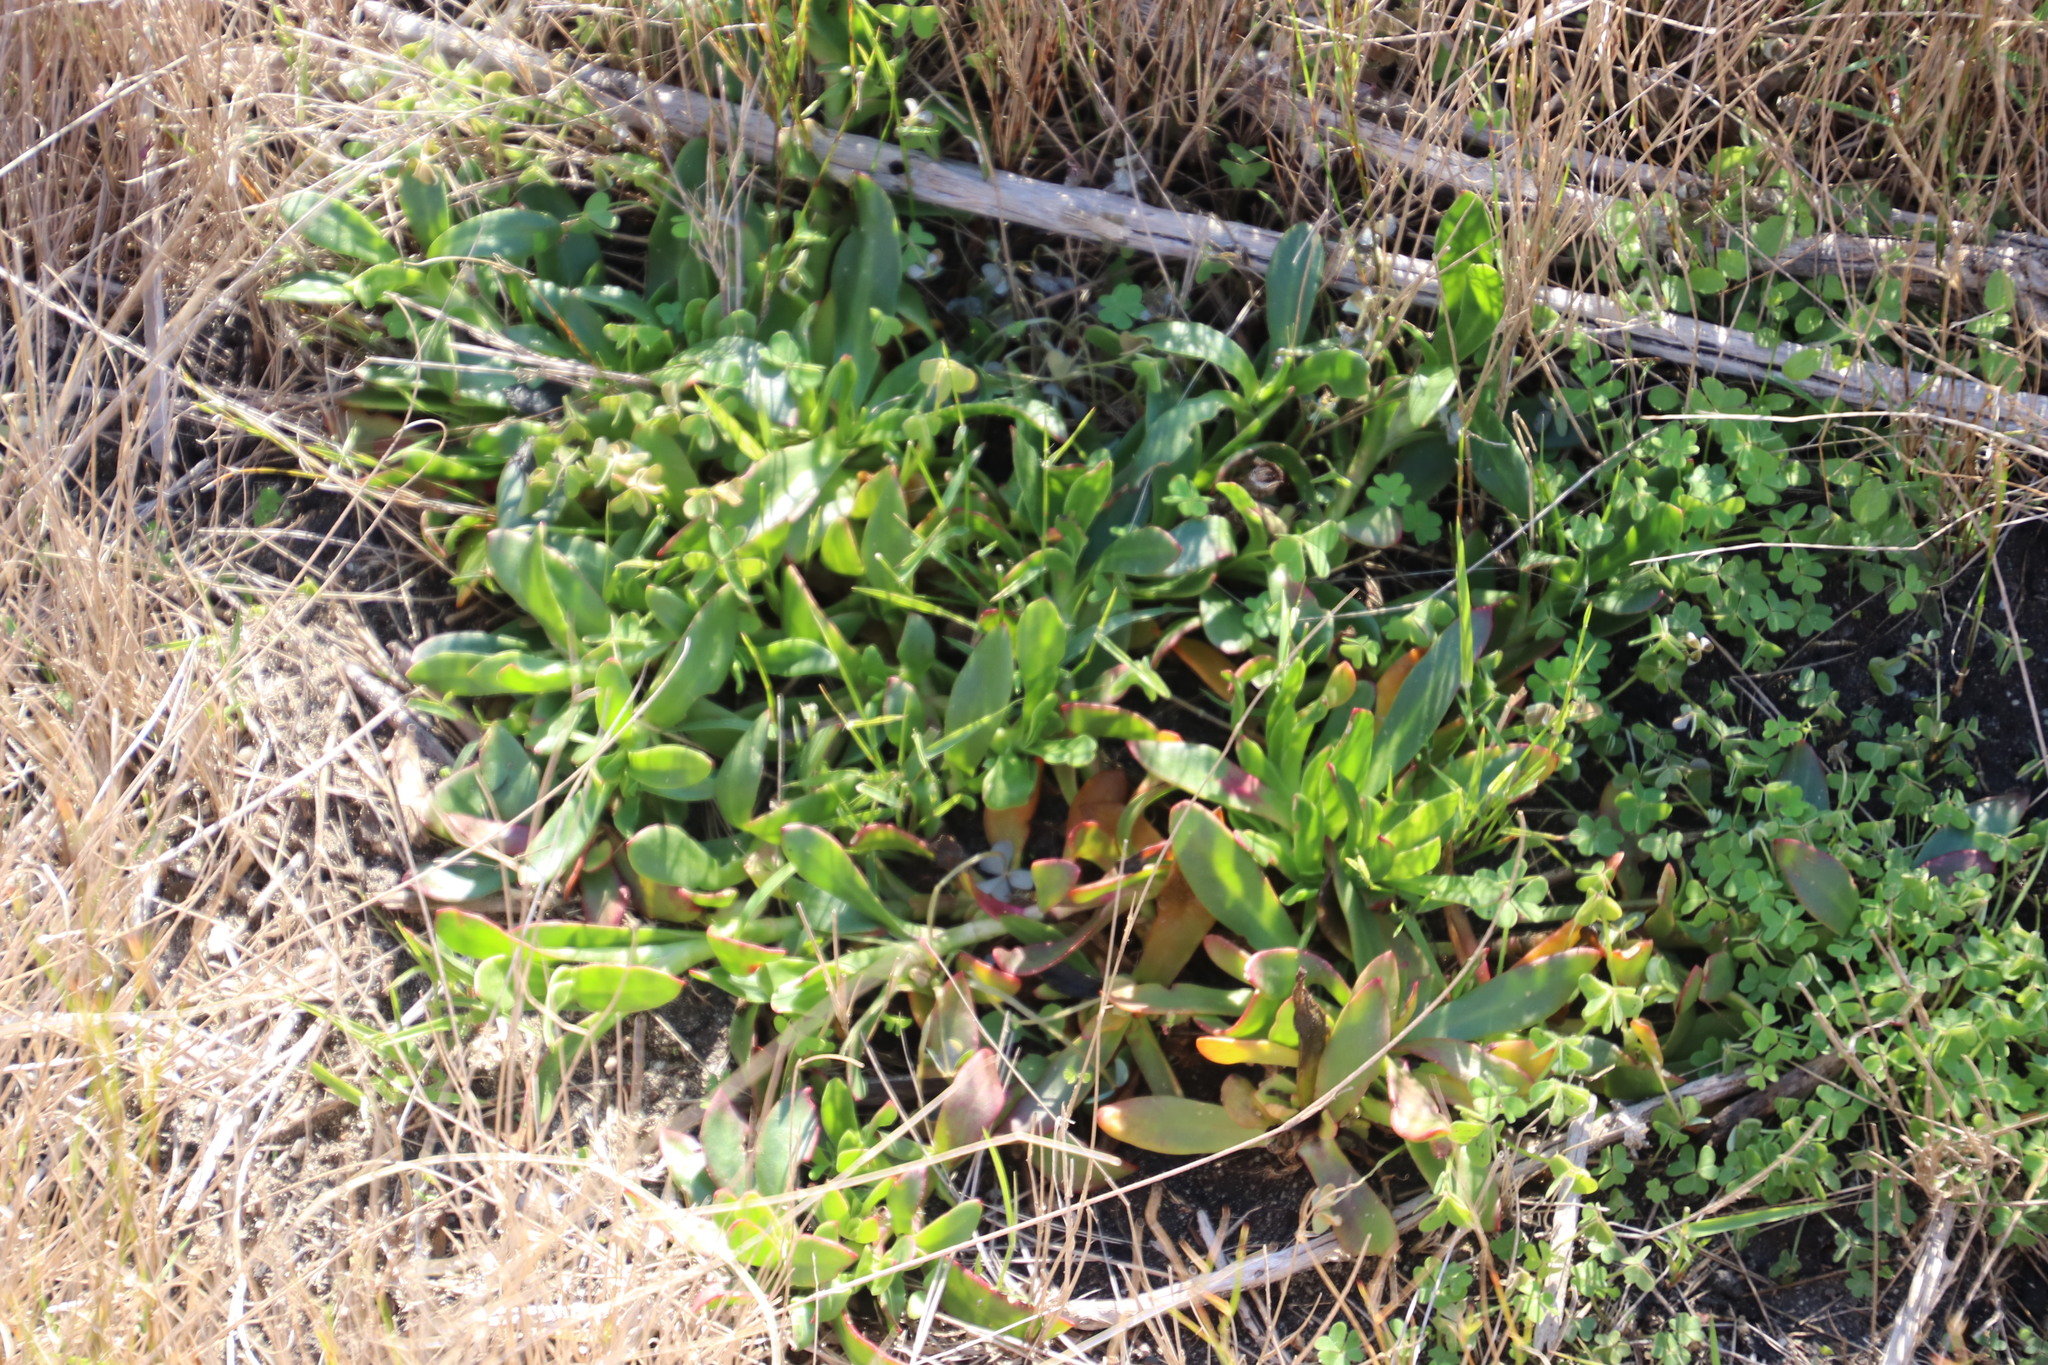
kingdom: Plantae
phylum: Tracheophyta
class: Magnoliopsida
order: Caryophyllales
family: Aizoaceae
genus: Skiatophytum
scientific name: Skiatophytum tripolium
